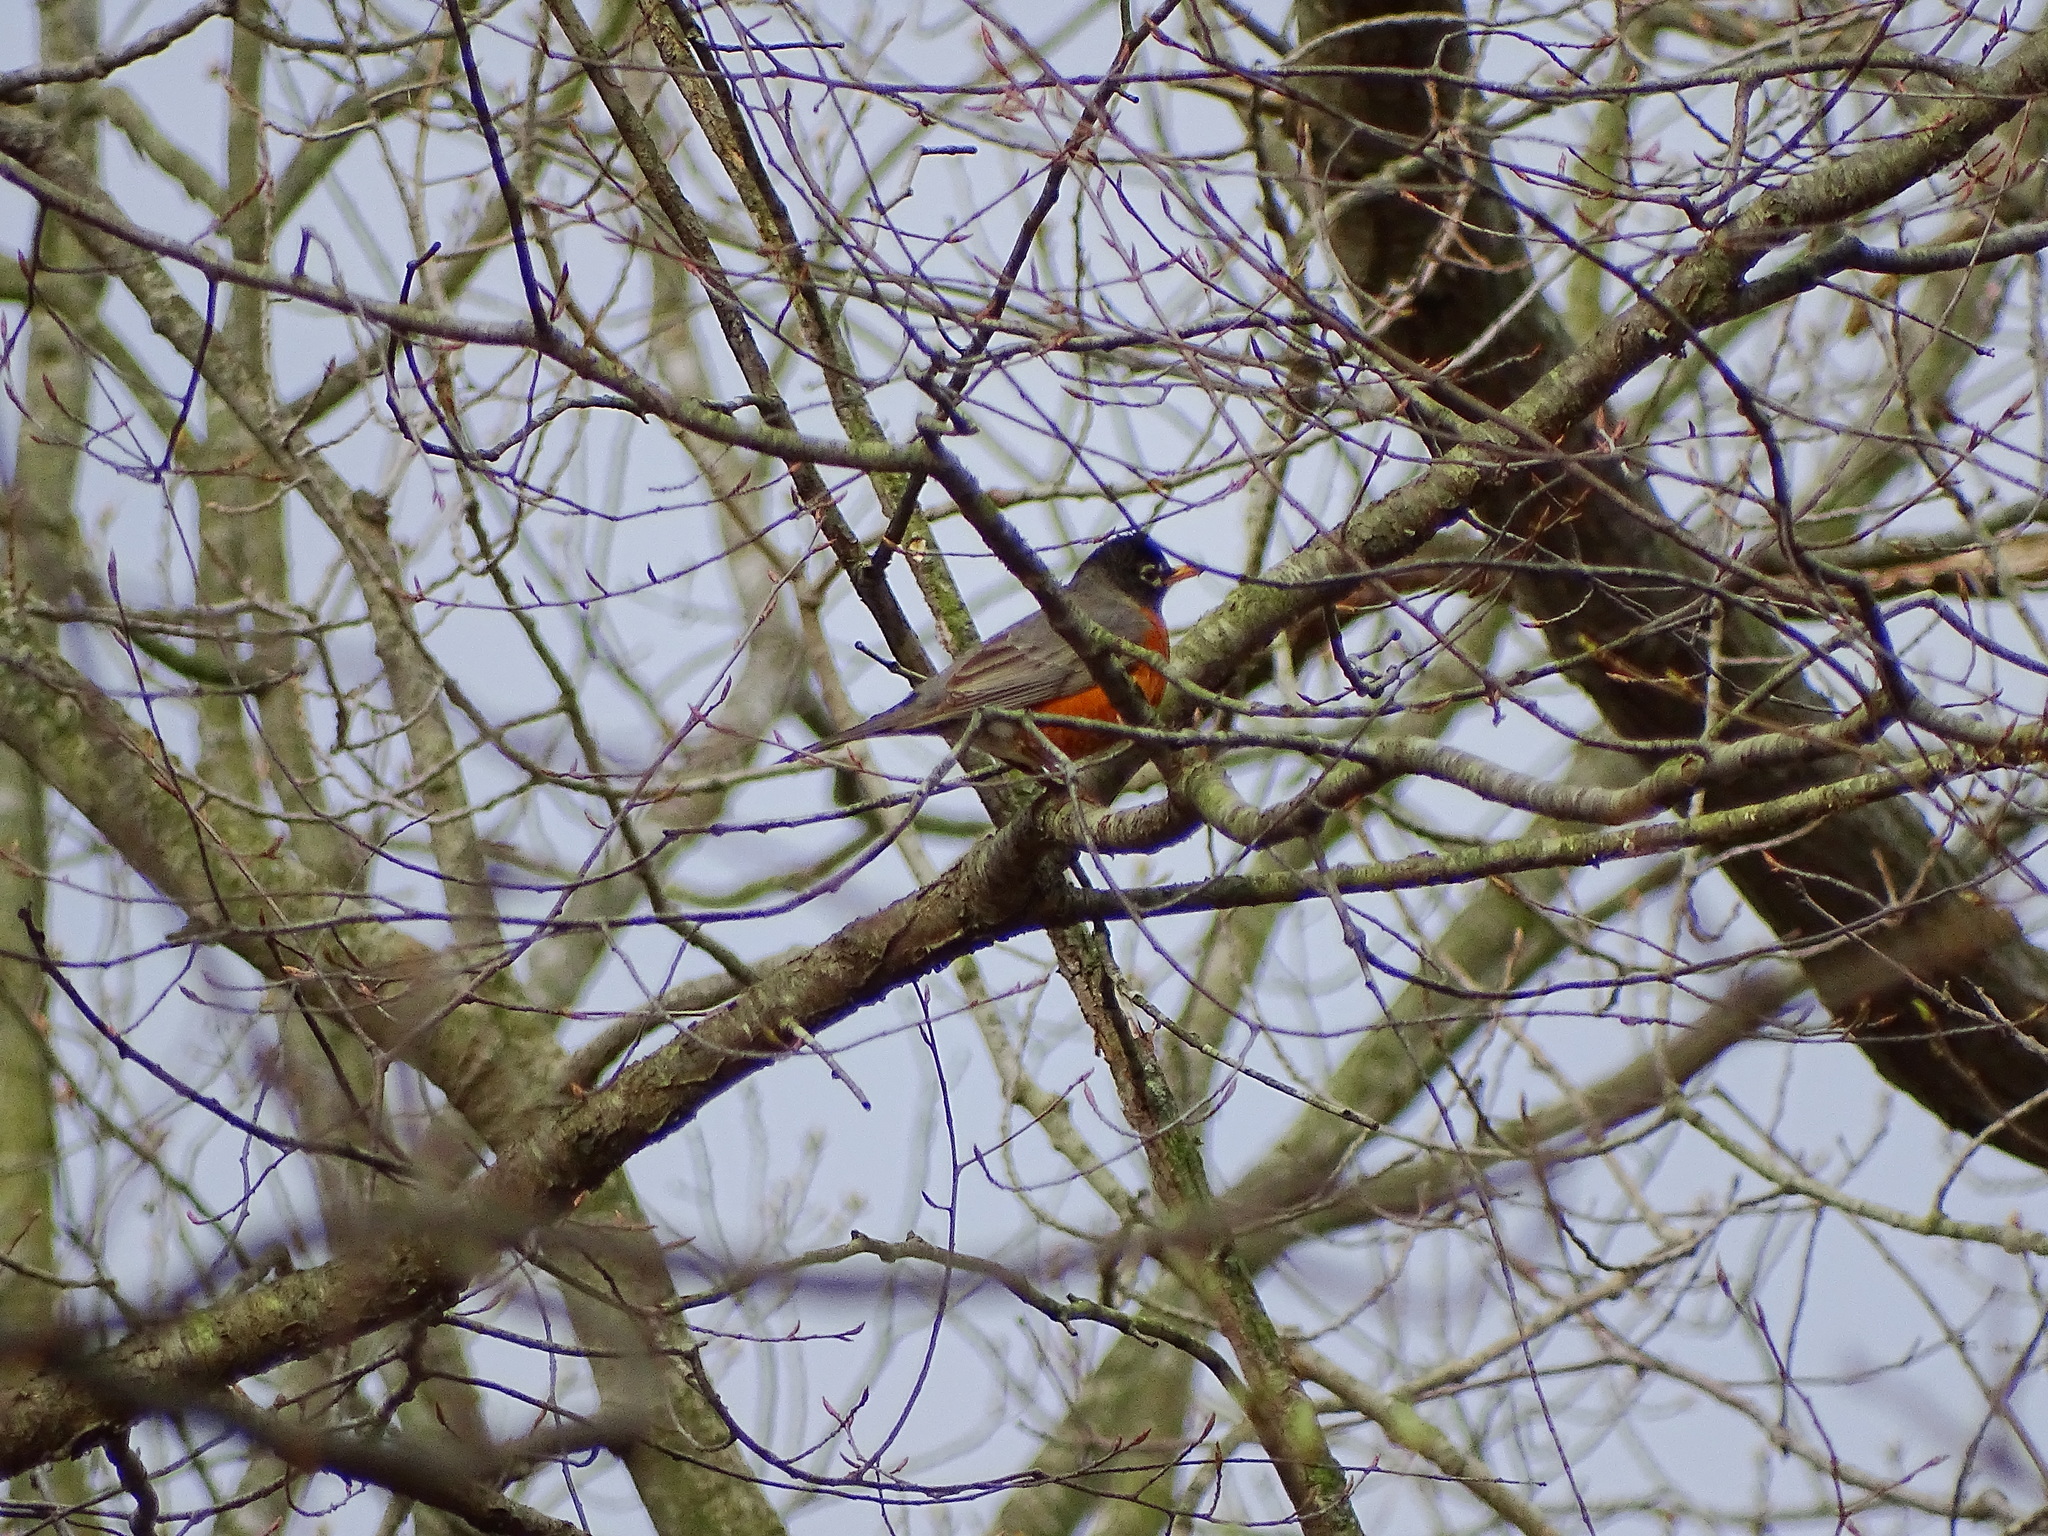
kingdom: Animalia
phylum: Chordata
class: Aves
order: Passeriformes
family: Turdidae
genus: Turdus
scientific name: Turdus migratorius
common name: American robin
